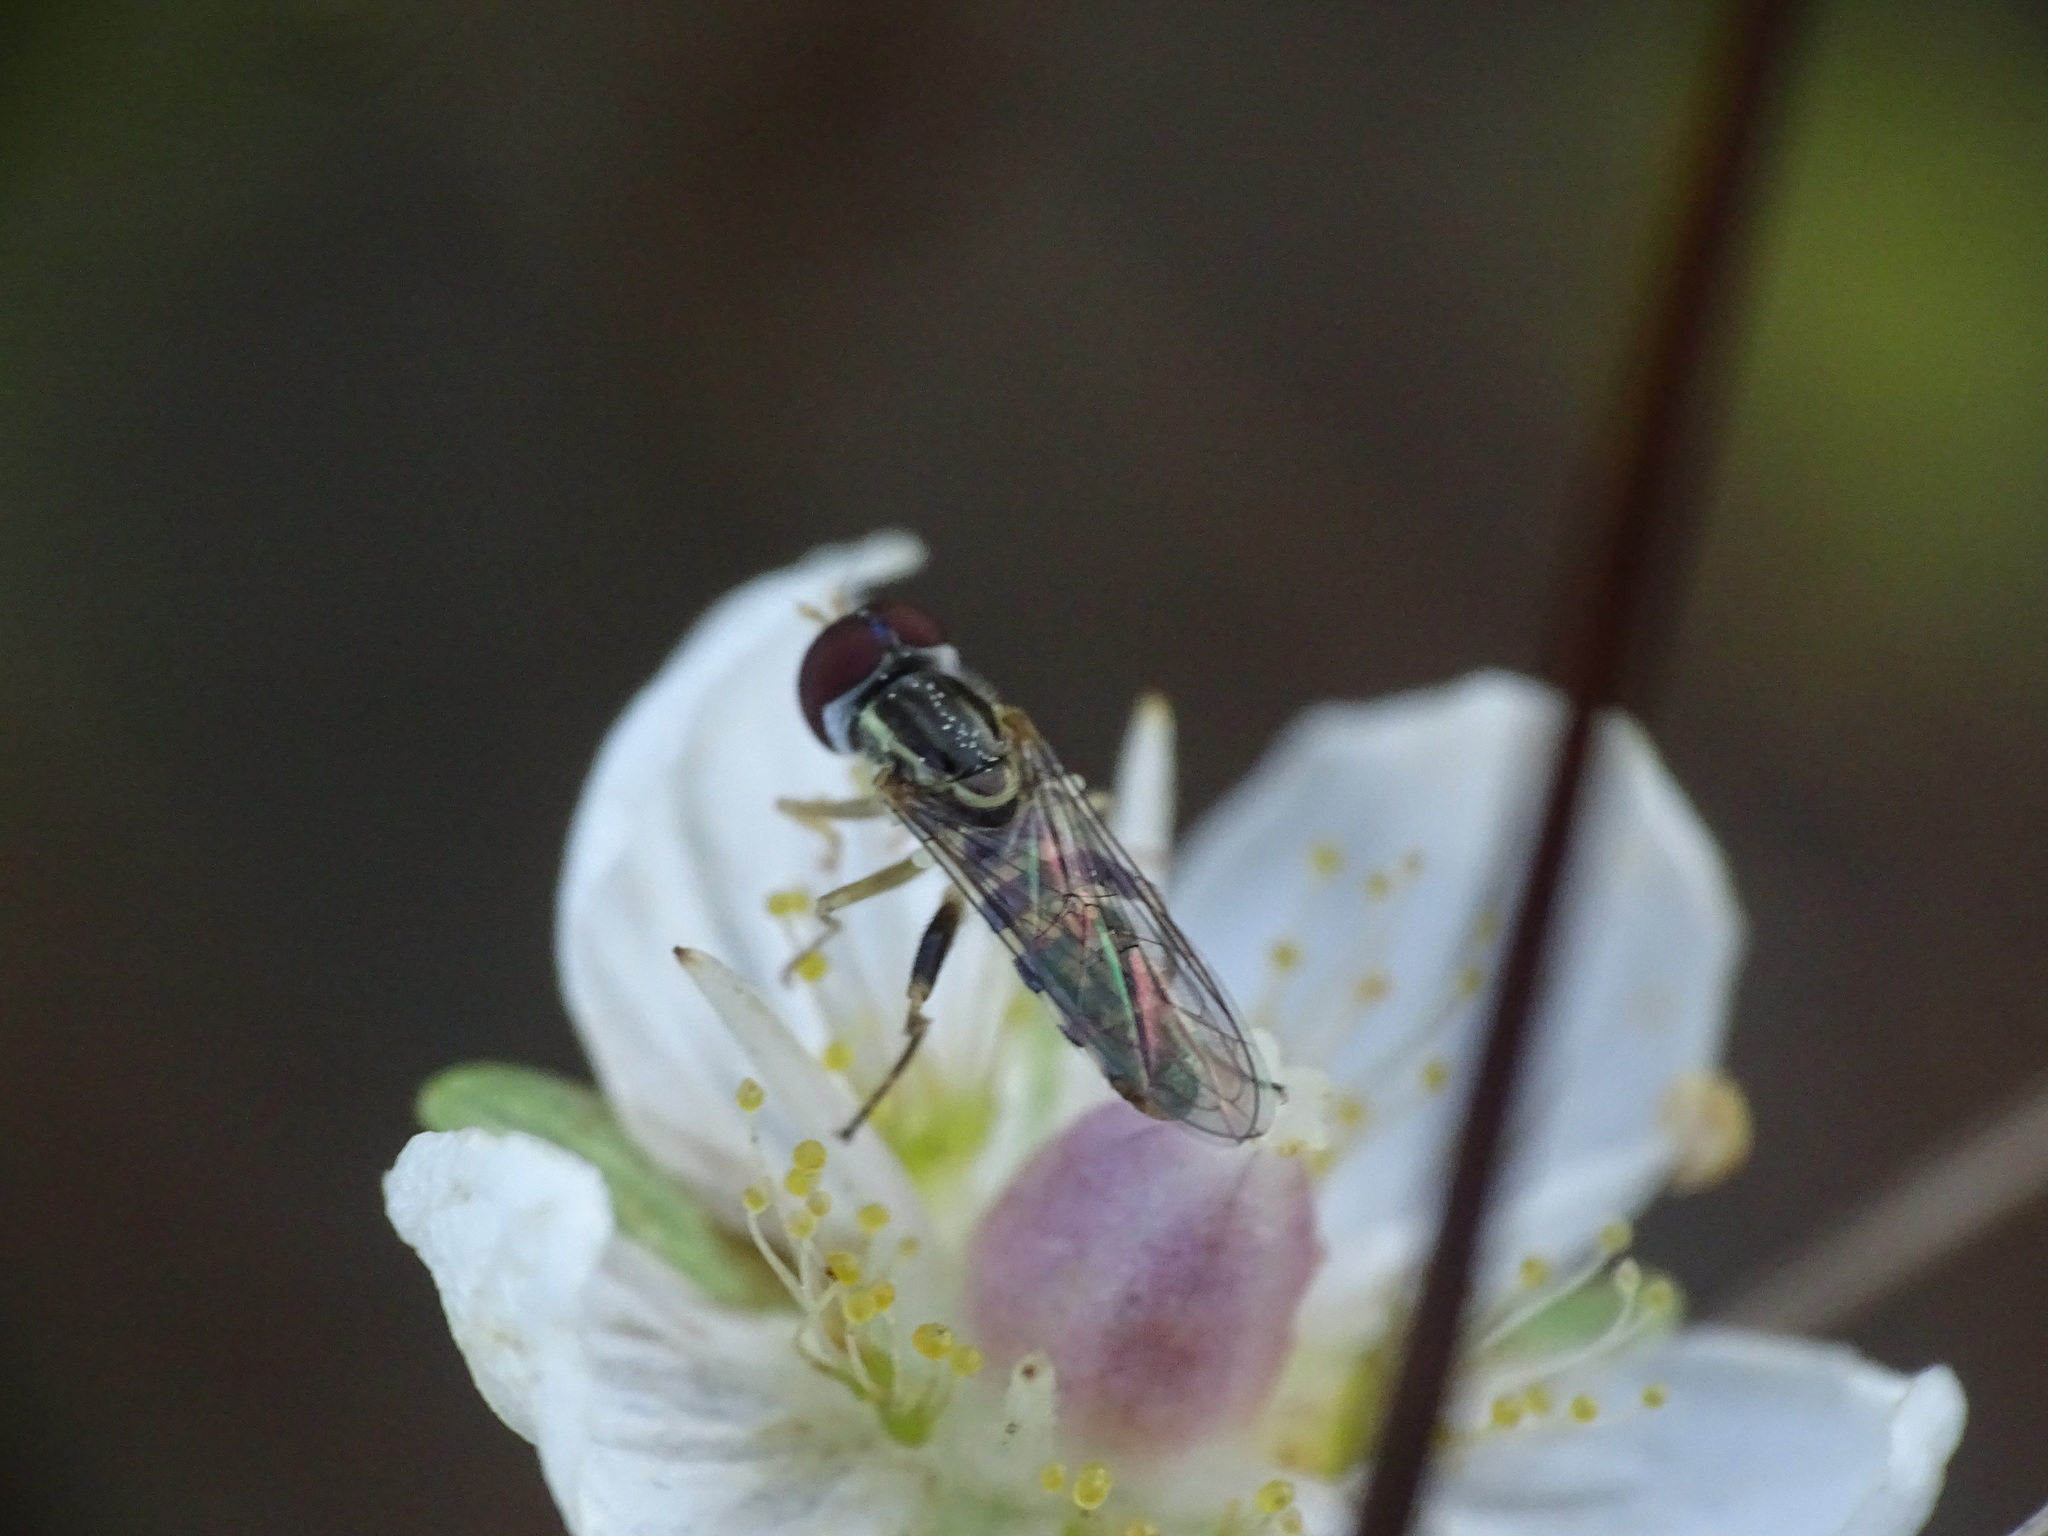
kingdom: Animalia
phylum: Arthropoda
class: Insecta
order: Diptera
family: Syrphidae
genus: Toxomerus
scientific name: Toxomerus geminatus
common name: Eastern calligrapher
